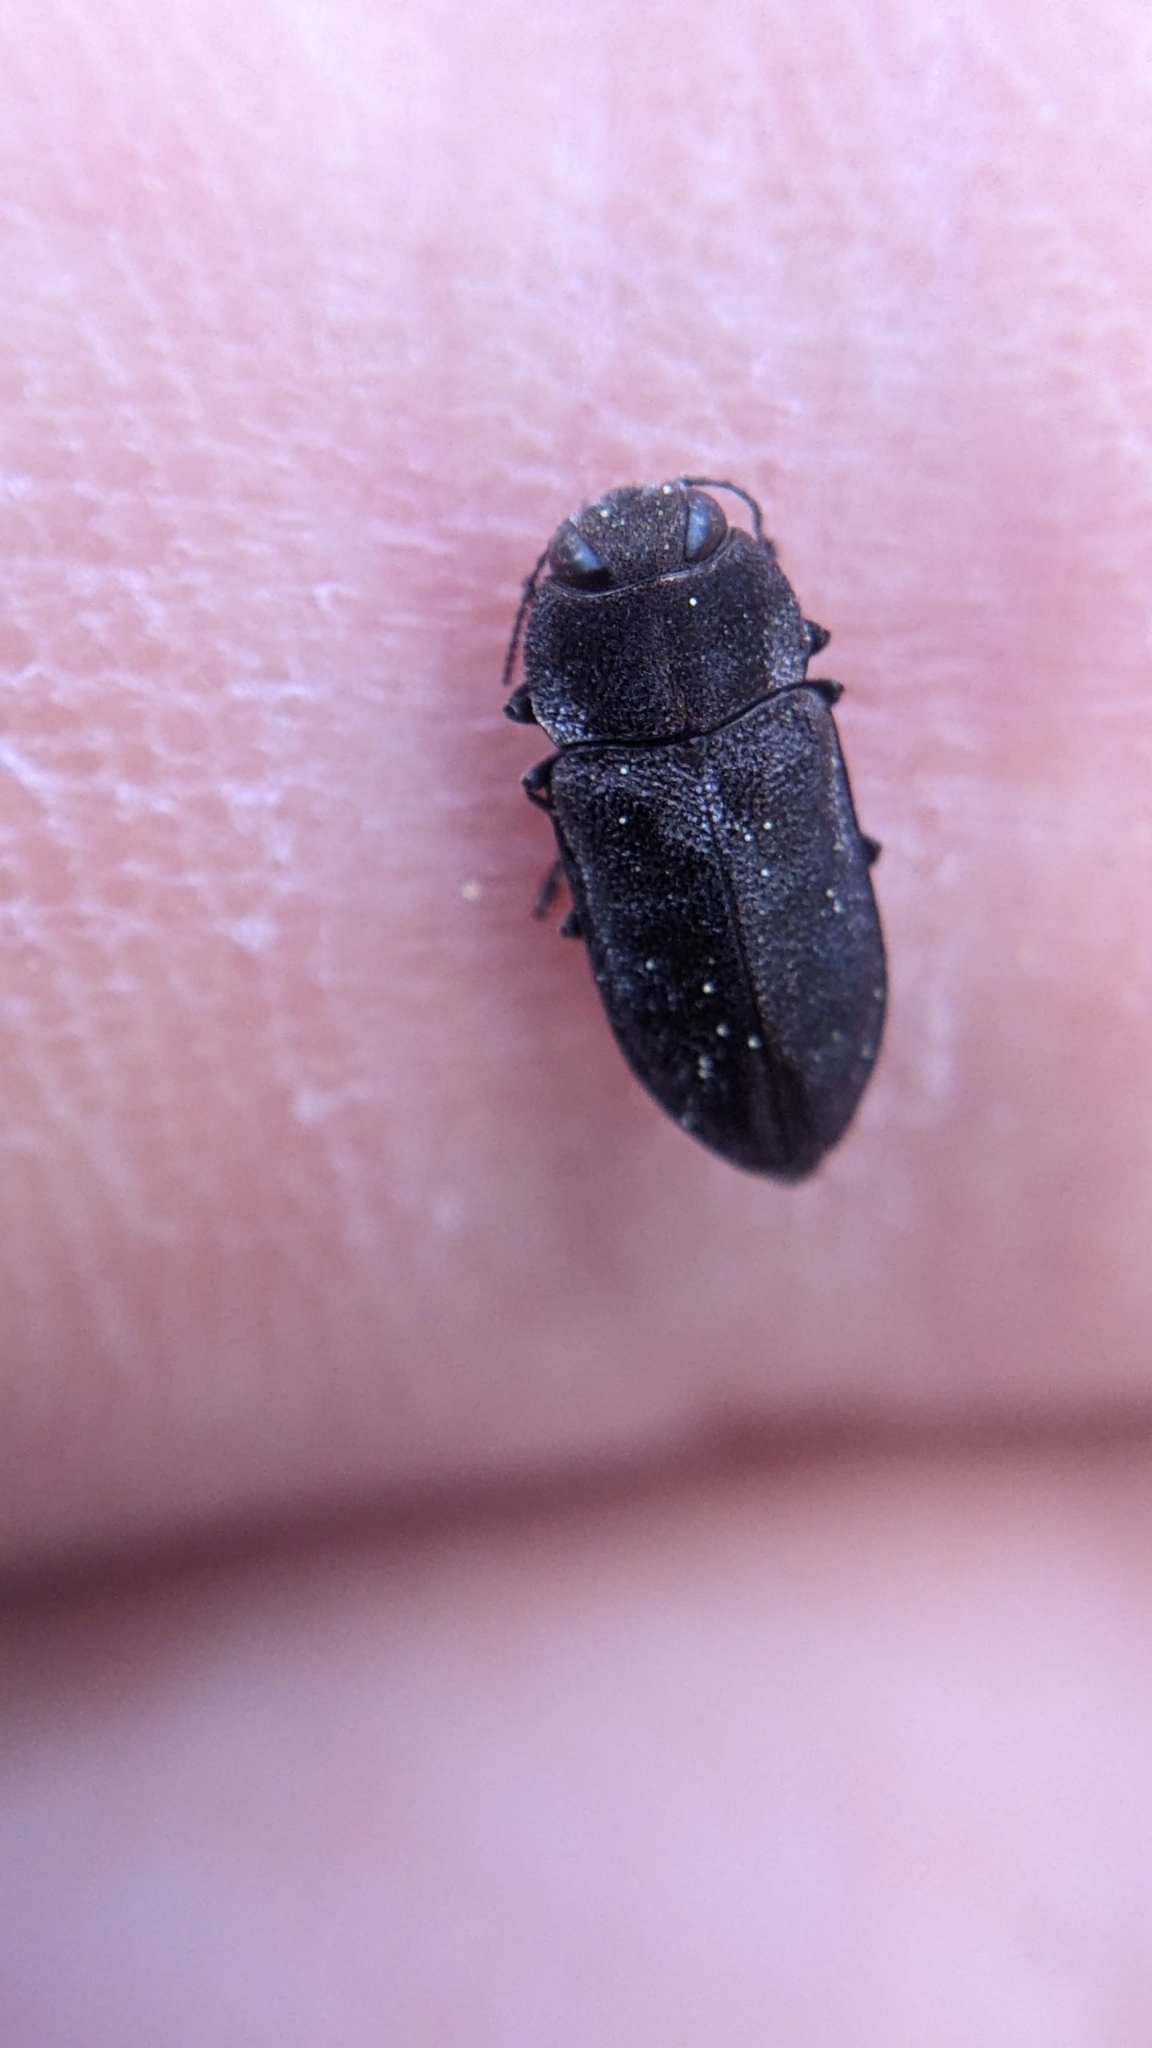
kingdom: Animalia
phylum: Arthropoda
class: Insecta
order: Coleoptera
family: Buprestidae
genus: Anthaxia
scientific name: Anthaxia
